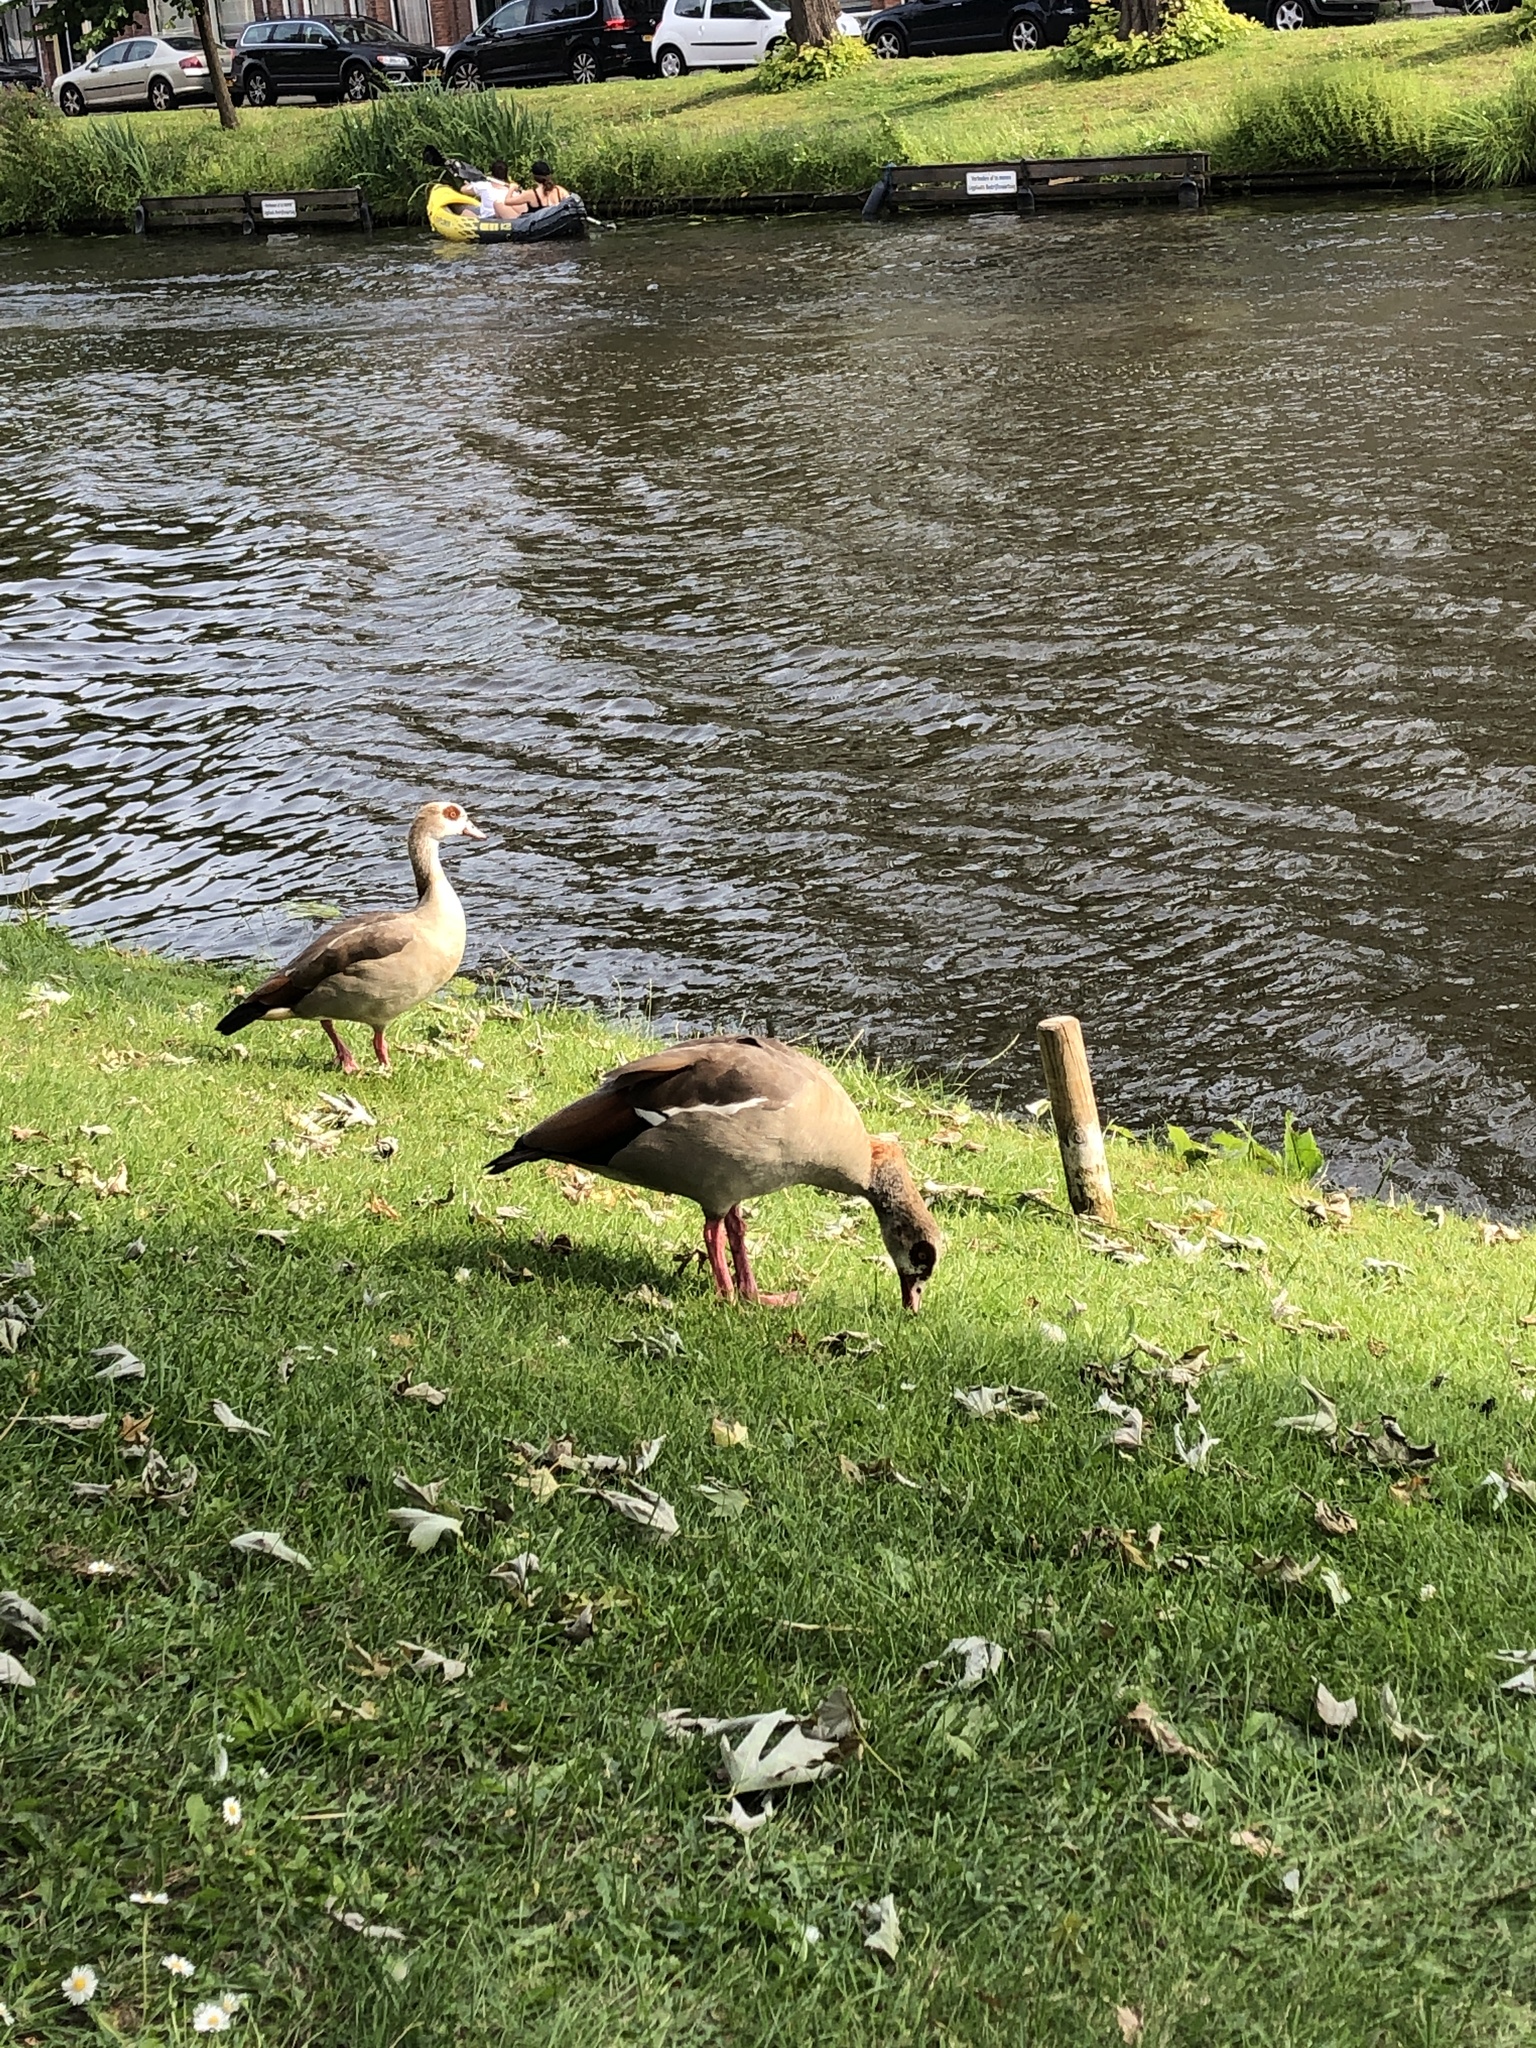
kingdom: Animalia
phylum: Chordata
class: Aves
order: Anseriformes
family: Anatidae
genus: Alopochen
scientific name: Alopochen aegyptiaca
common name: Egyptian goose
